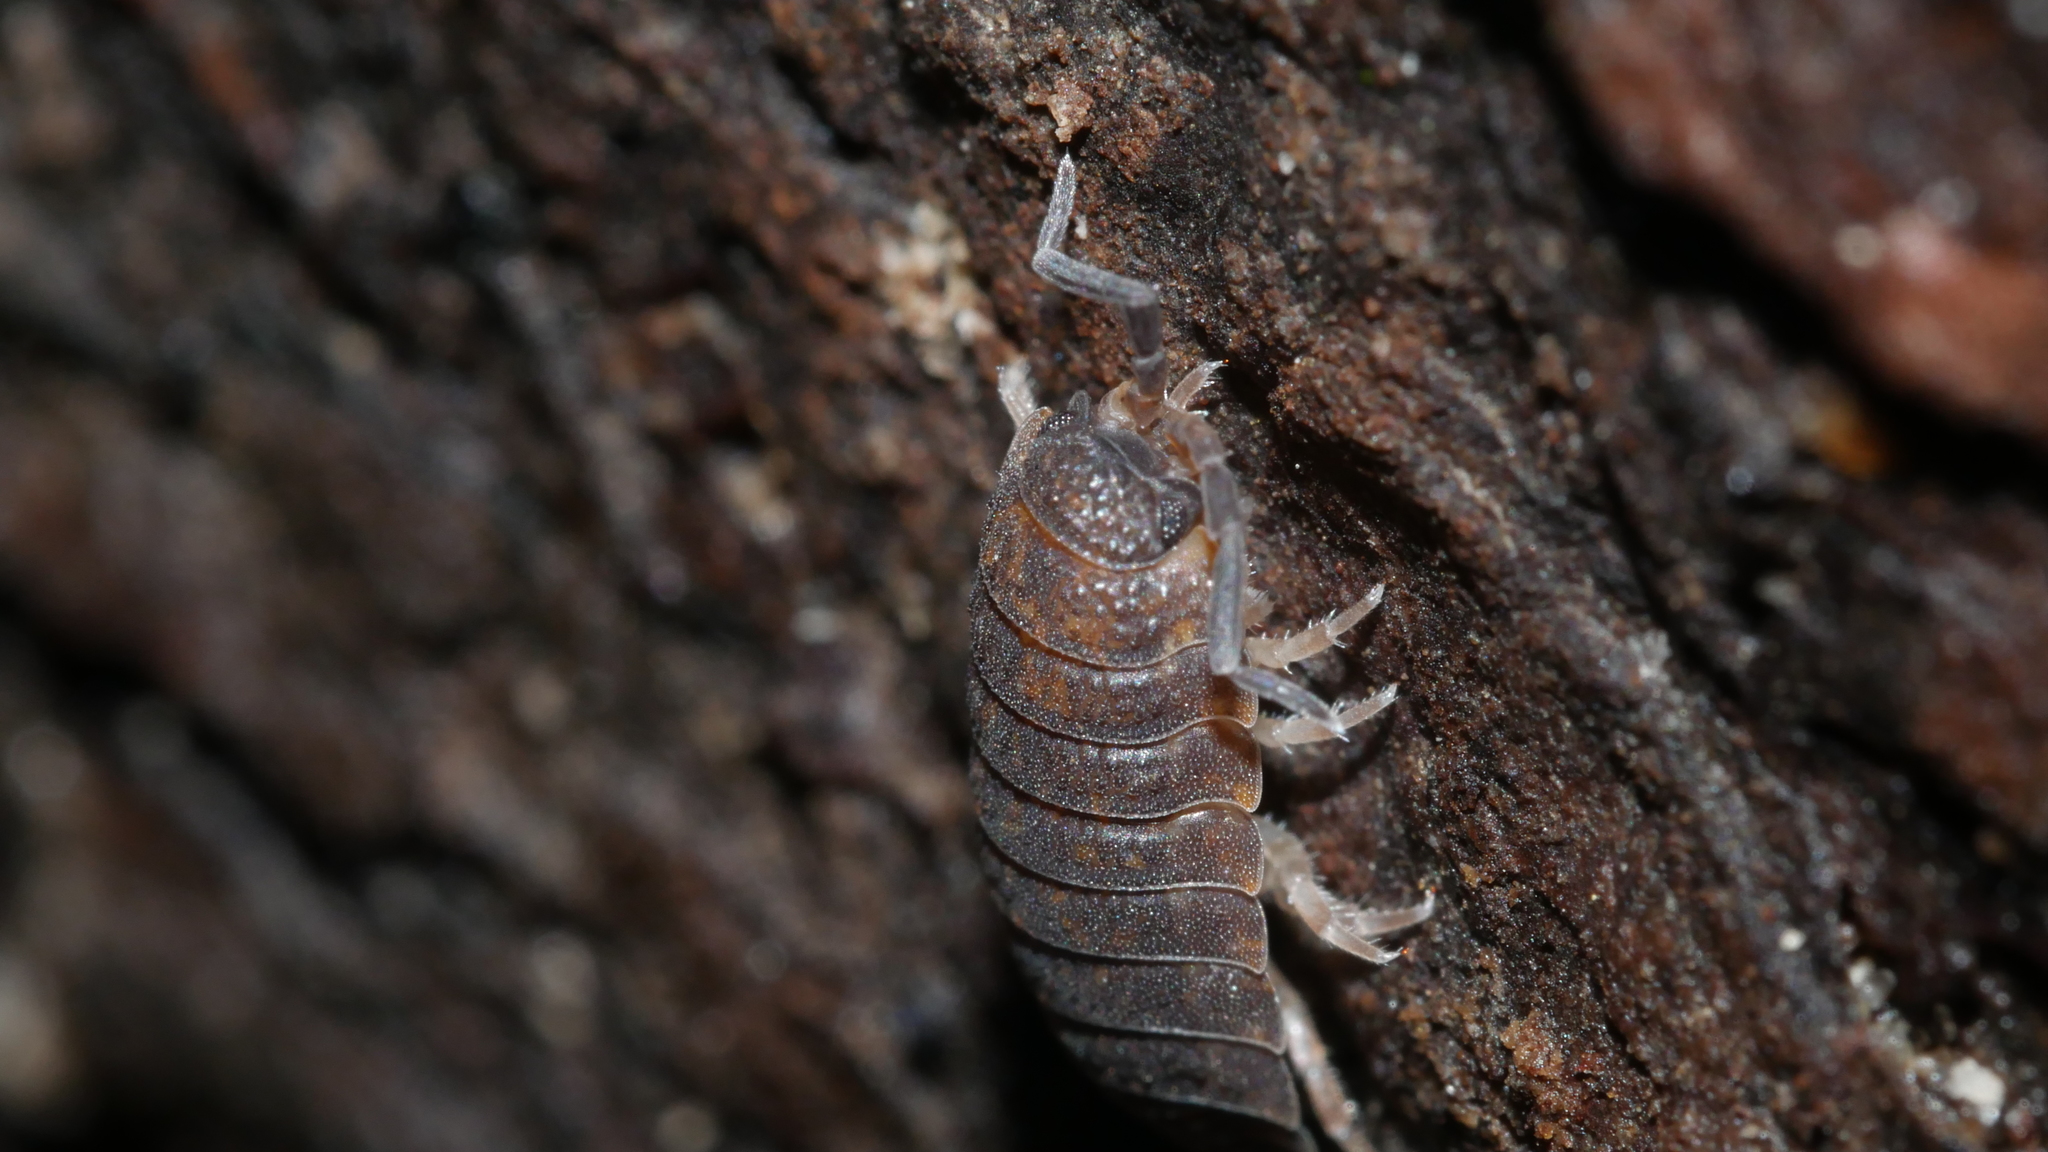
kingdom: Animalia
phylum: Arthropoda
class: Malacostraca
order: Isopoda
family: Porcellionidae
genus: Porcellio
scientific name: Porcellio scaber
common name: Common rough woodlouse
